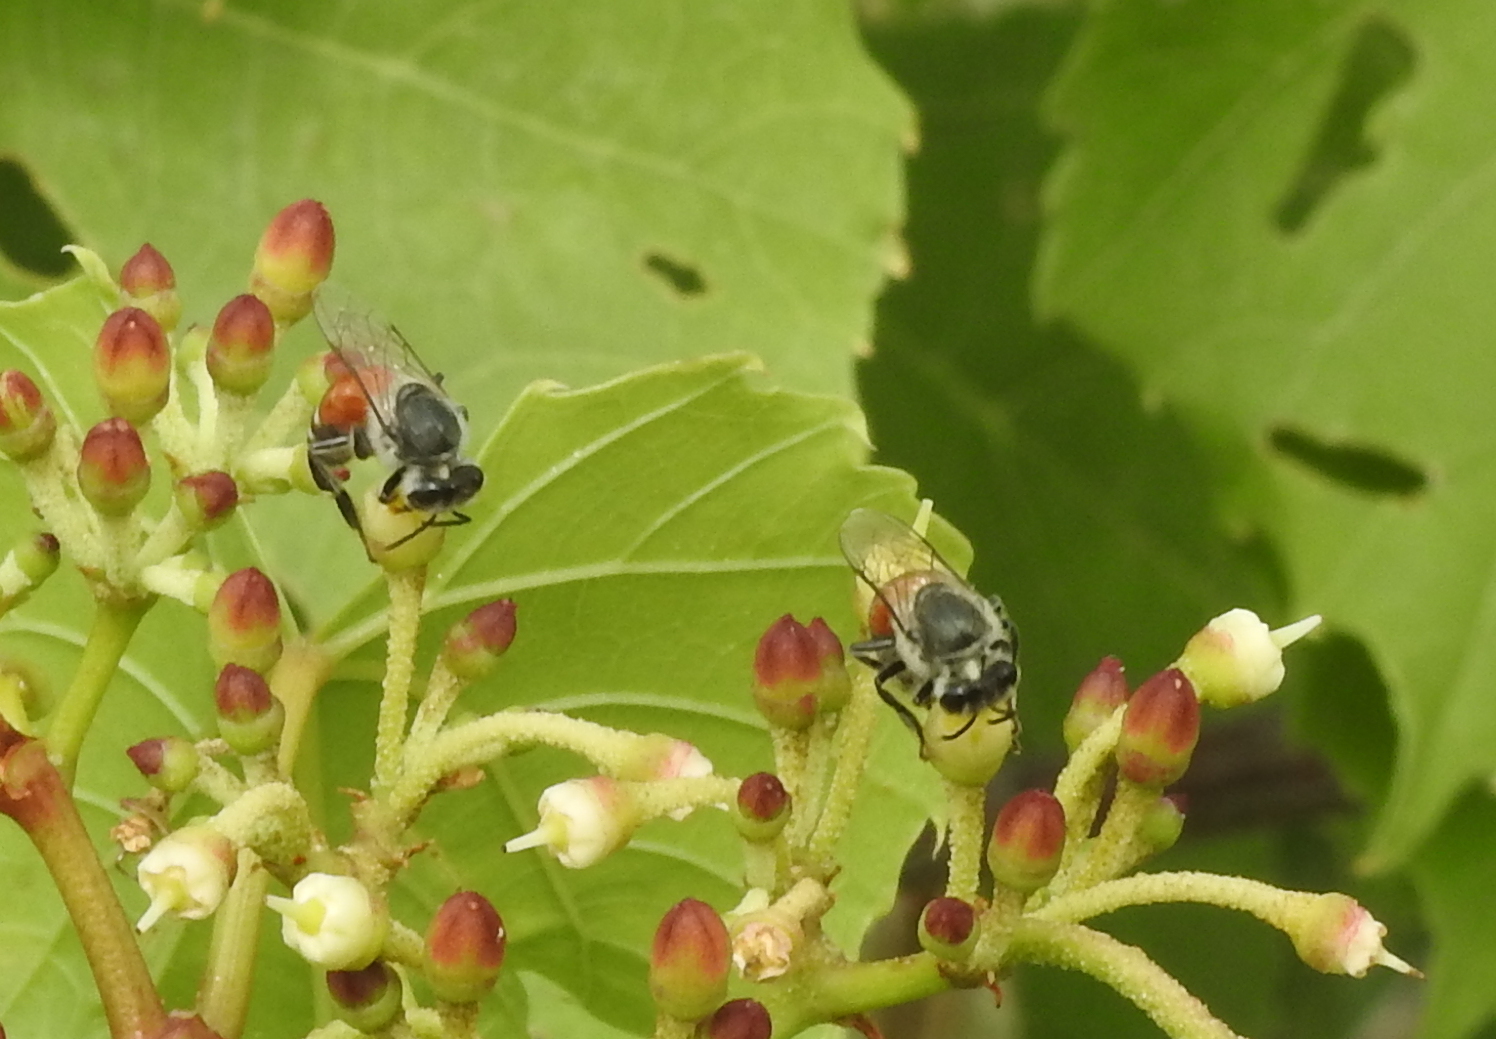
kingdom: Animalia
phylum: Arthropoda
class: Insecta
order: Hymenoptera
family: Apidae
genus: Apis
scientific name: Apis florea
